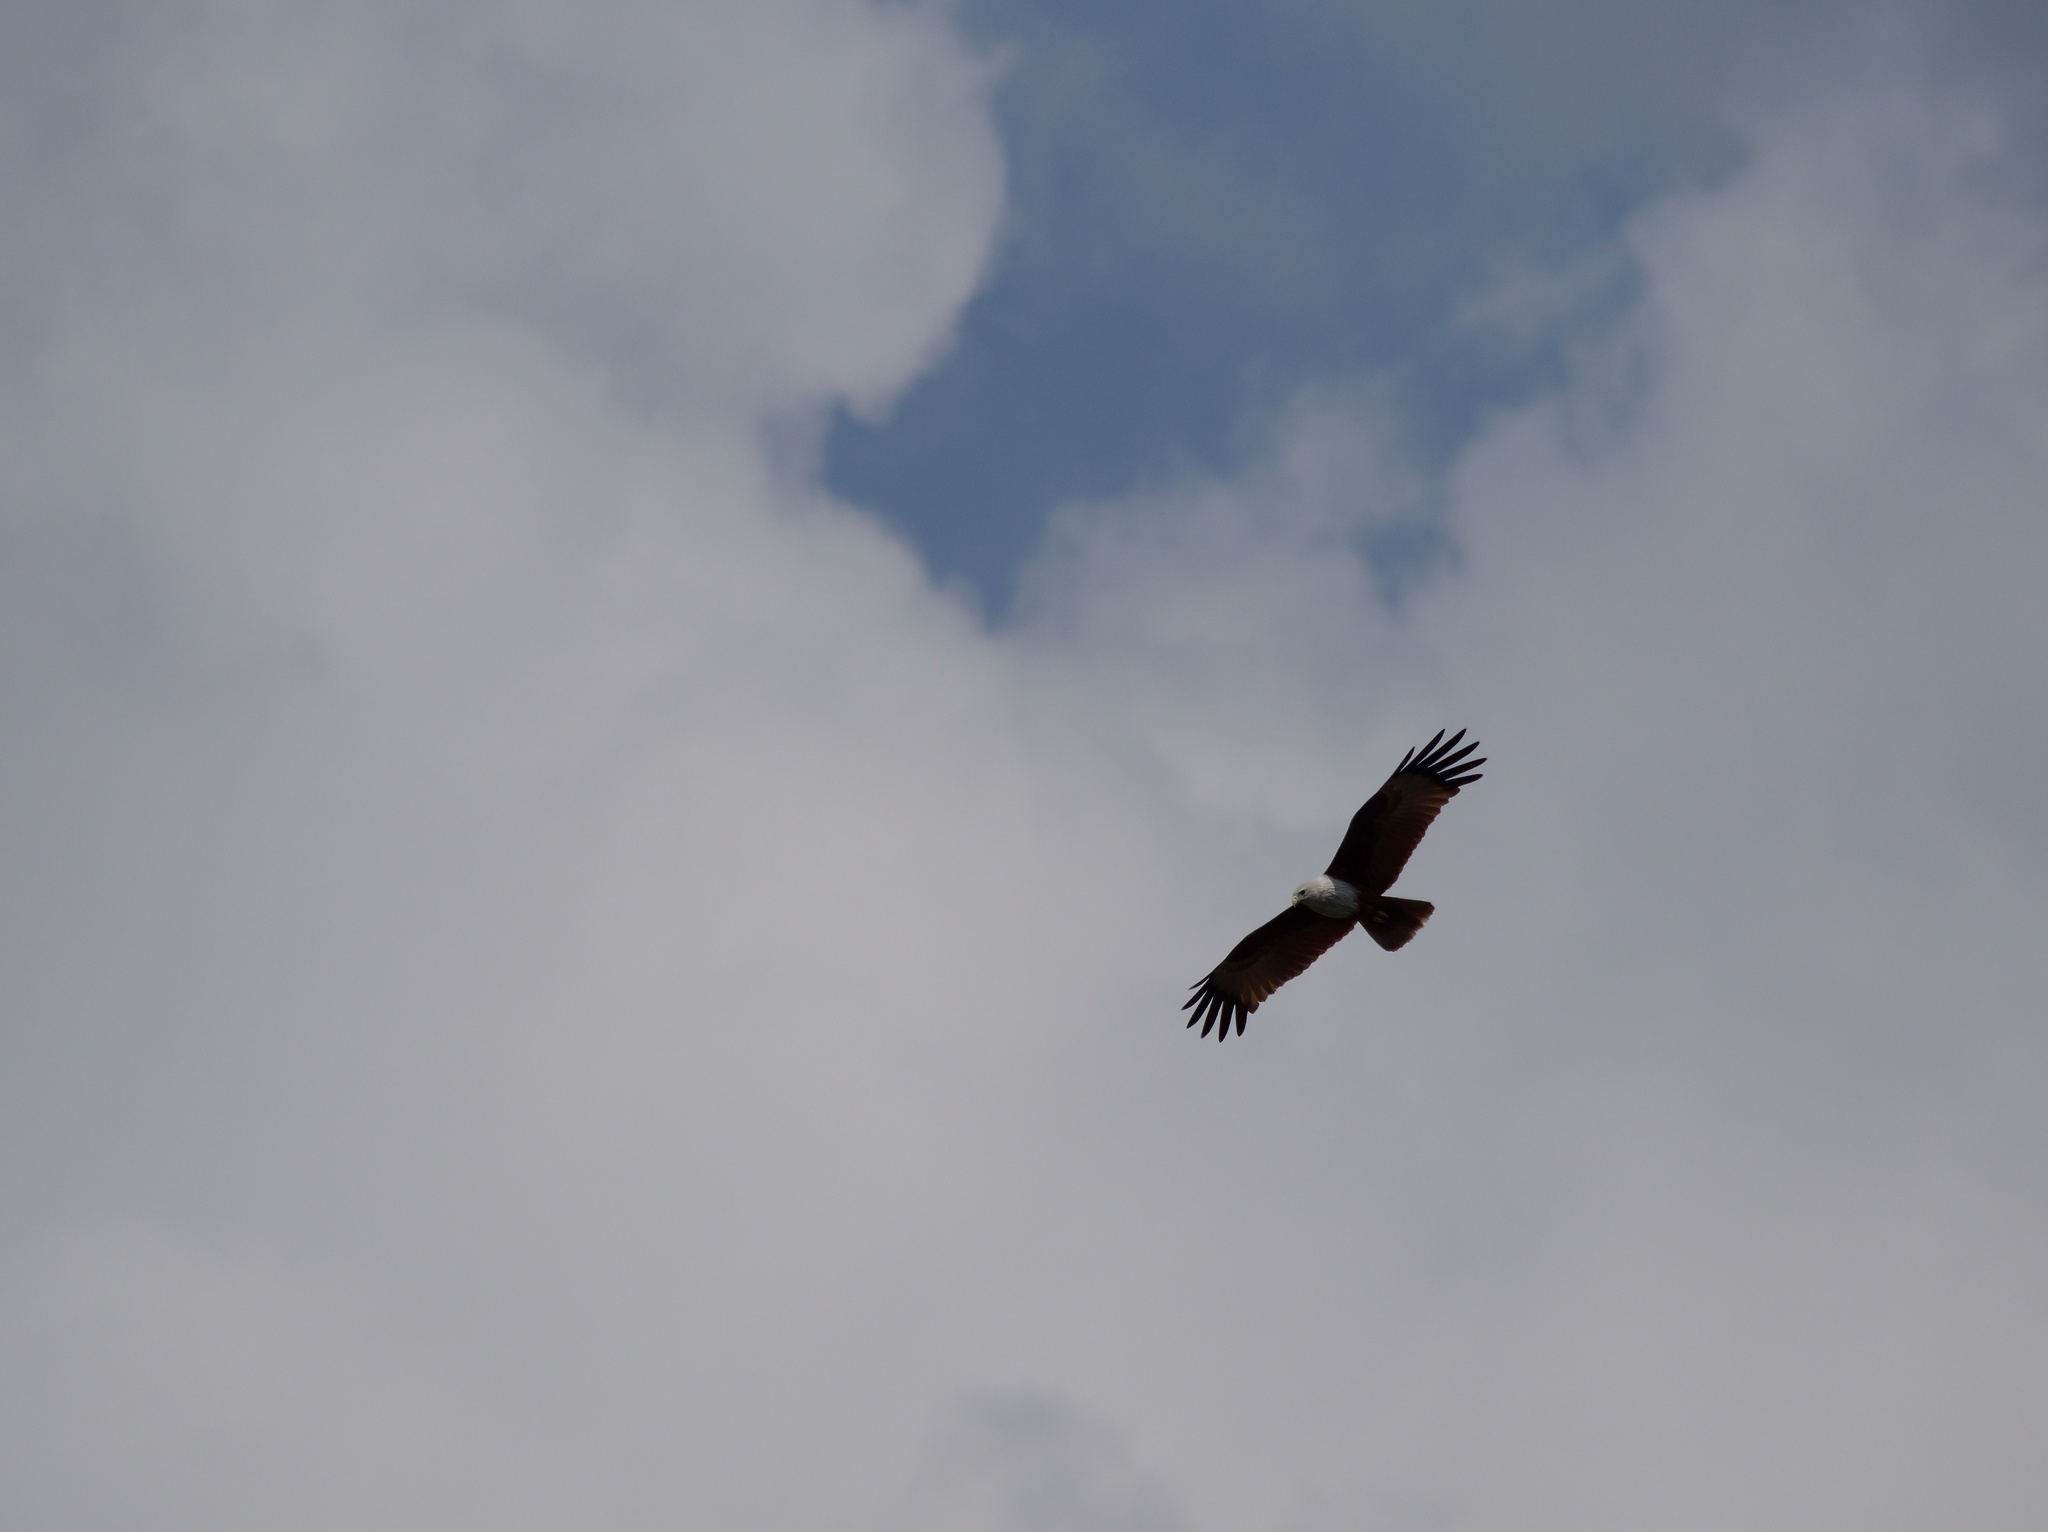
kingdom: Animalia
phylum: Chordata
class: Aves
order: Accipitriformes
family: Accipitridae
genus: Haliastur
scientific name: Haliastur indus
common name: Brahminy kite
